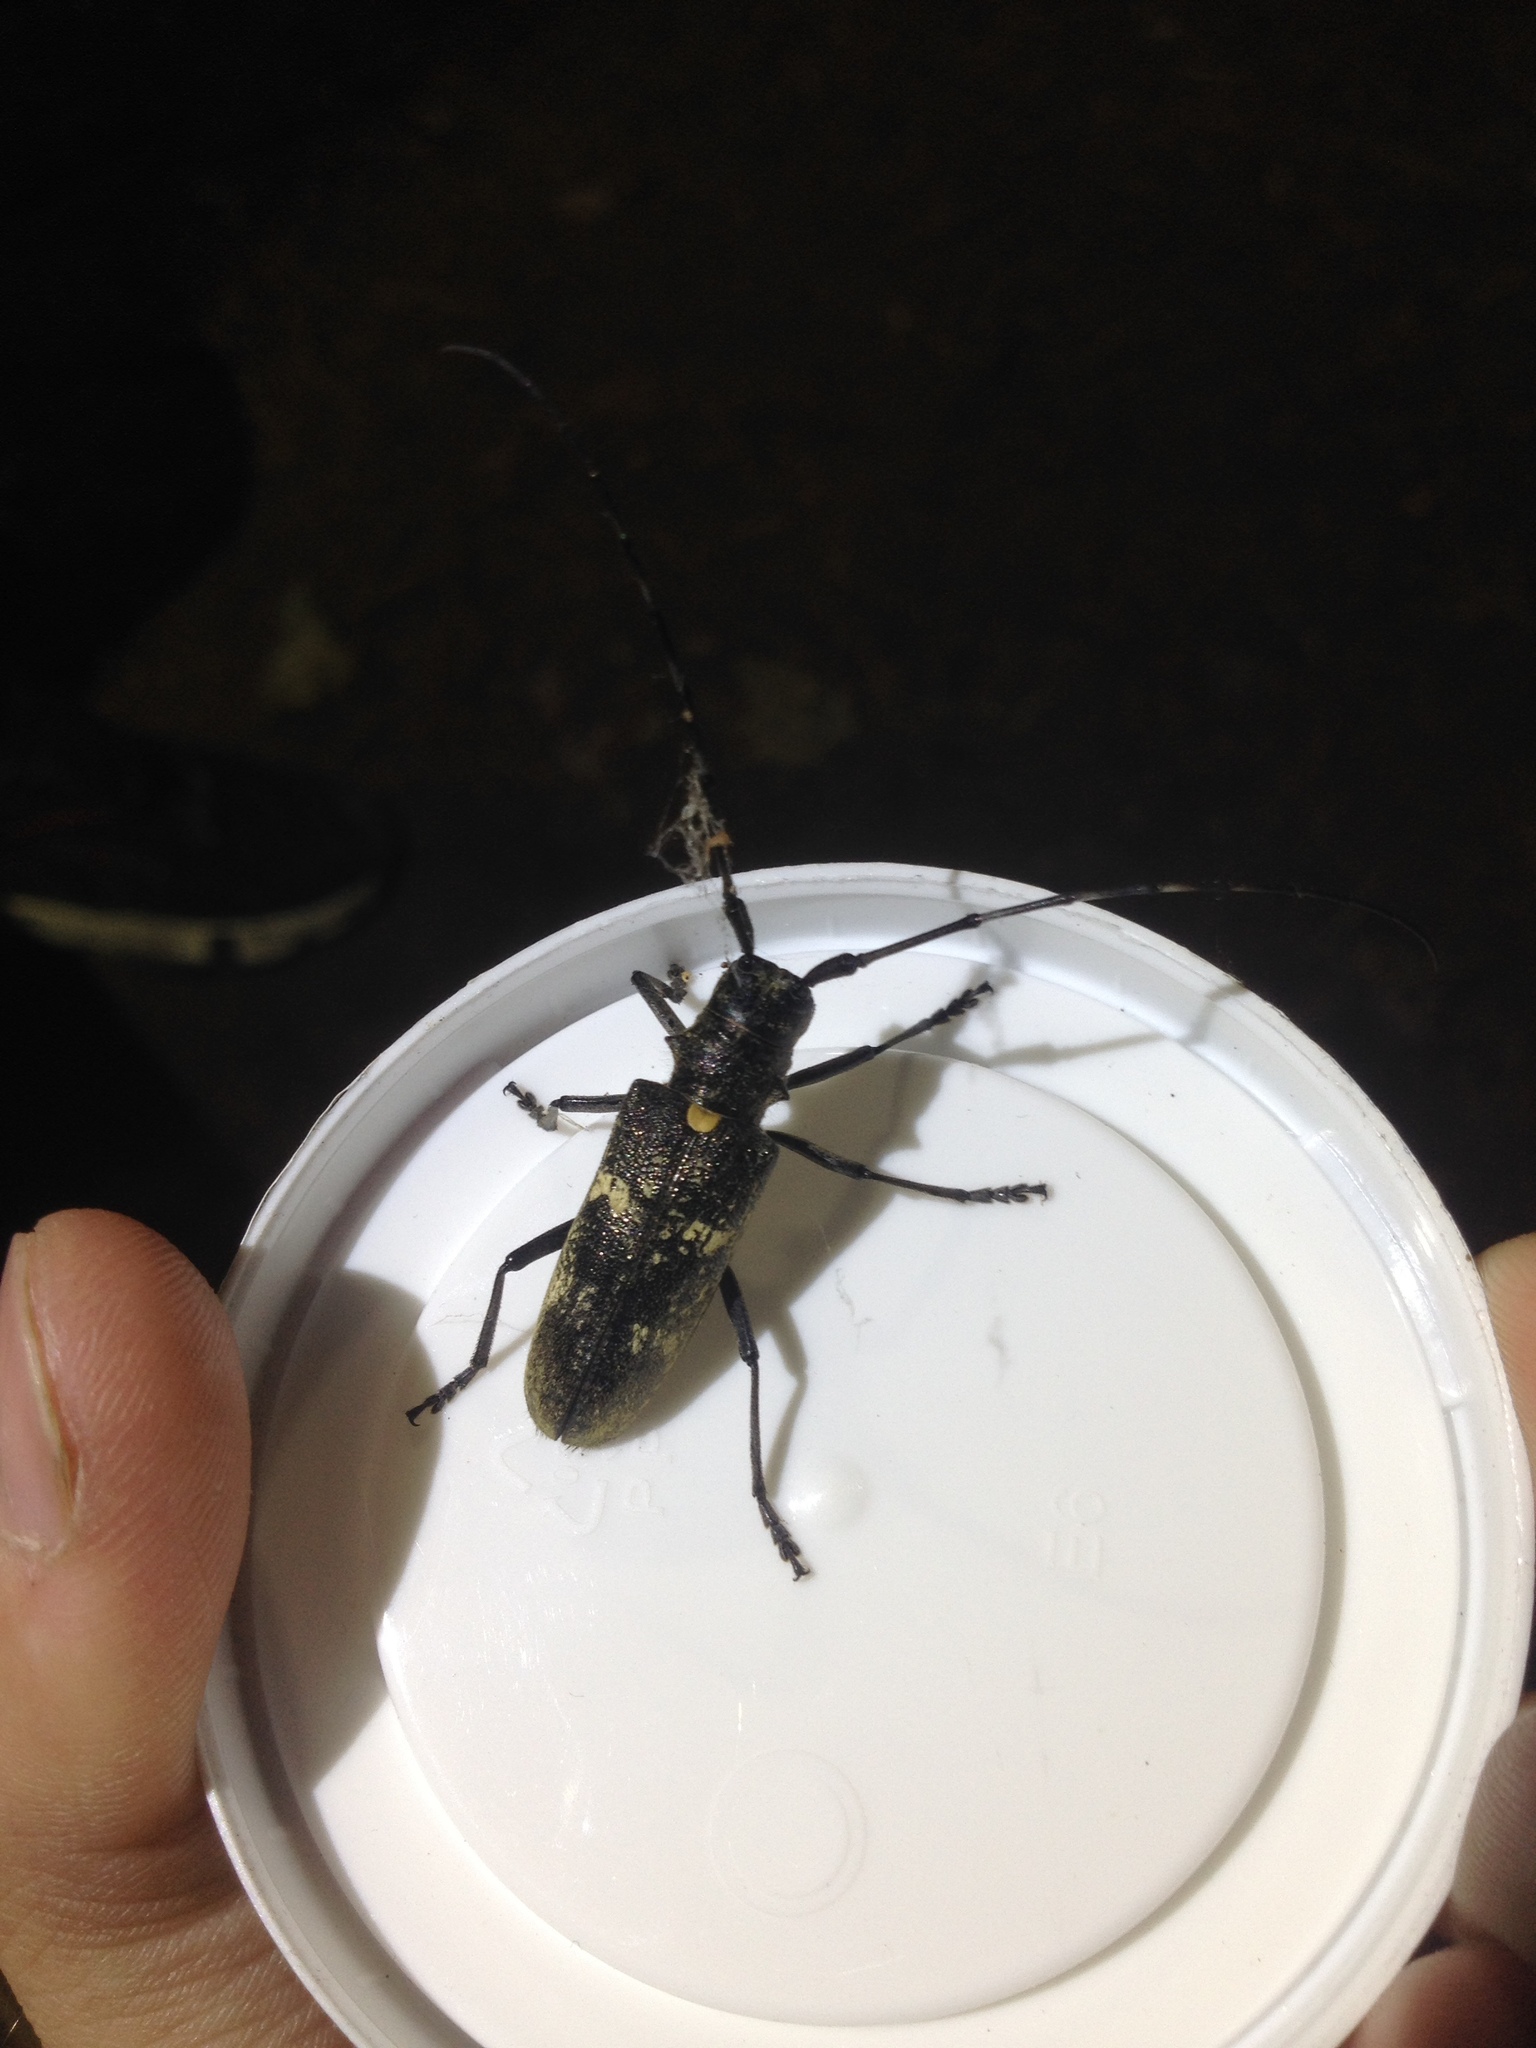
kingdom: Animalia
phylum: Arthropoda
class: Insecta
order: Coleoptera
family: Cerambycidae
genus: Monochamus
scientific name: Monochamus urussovii
